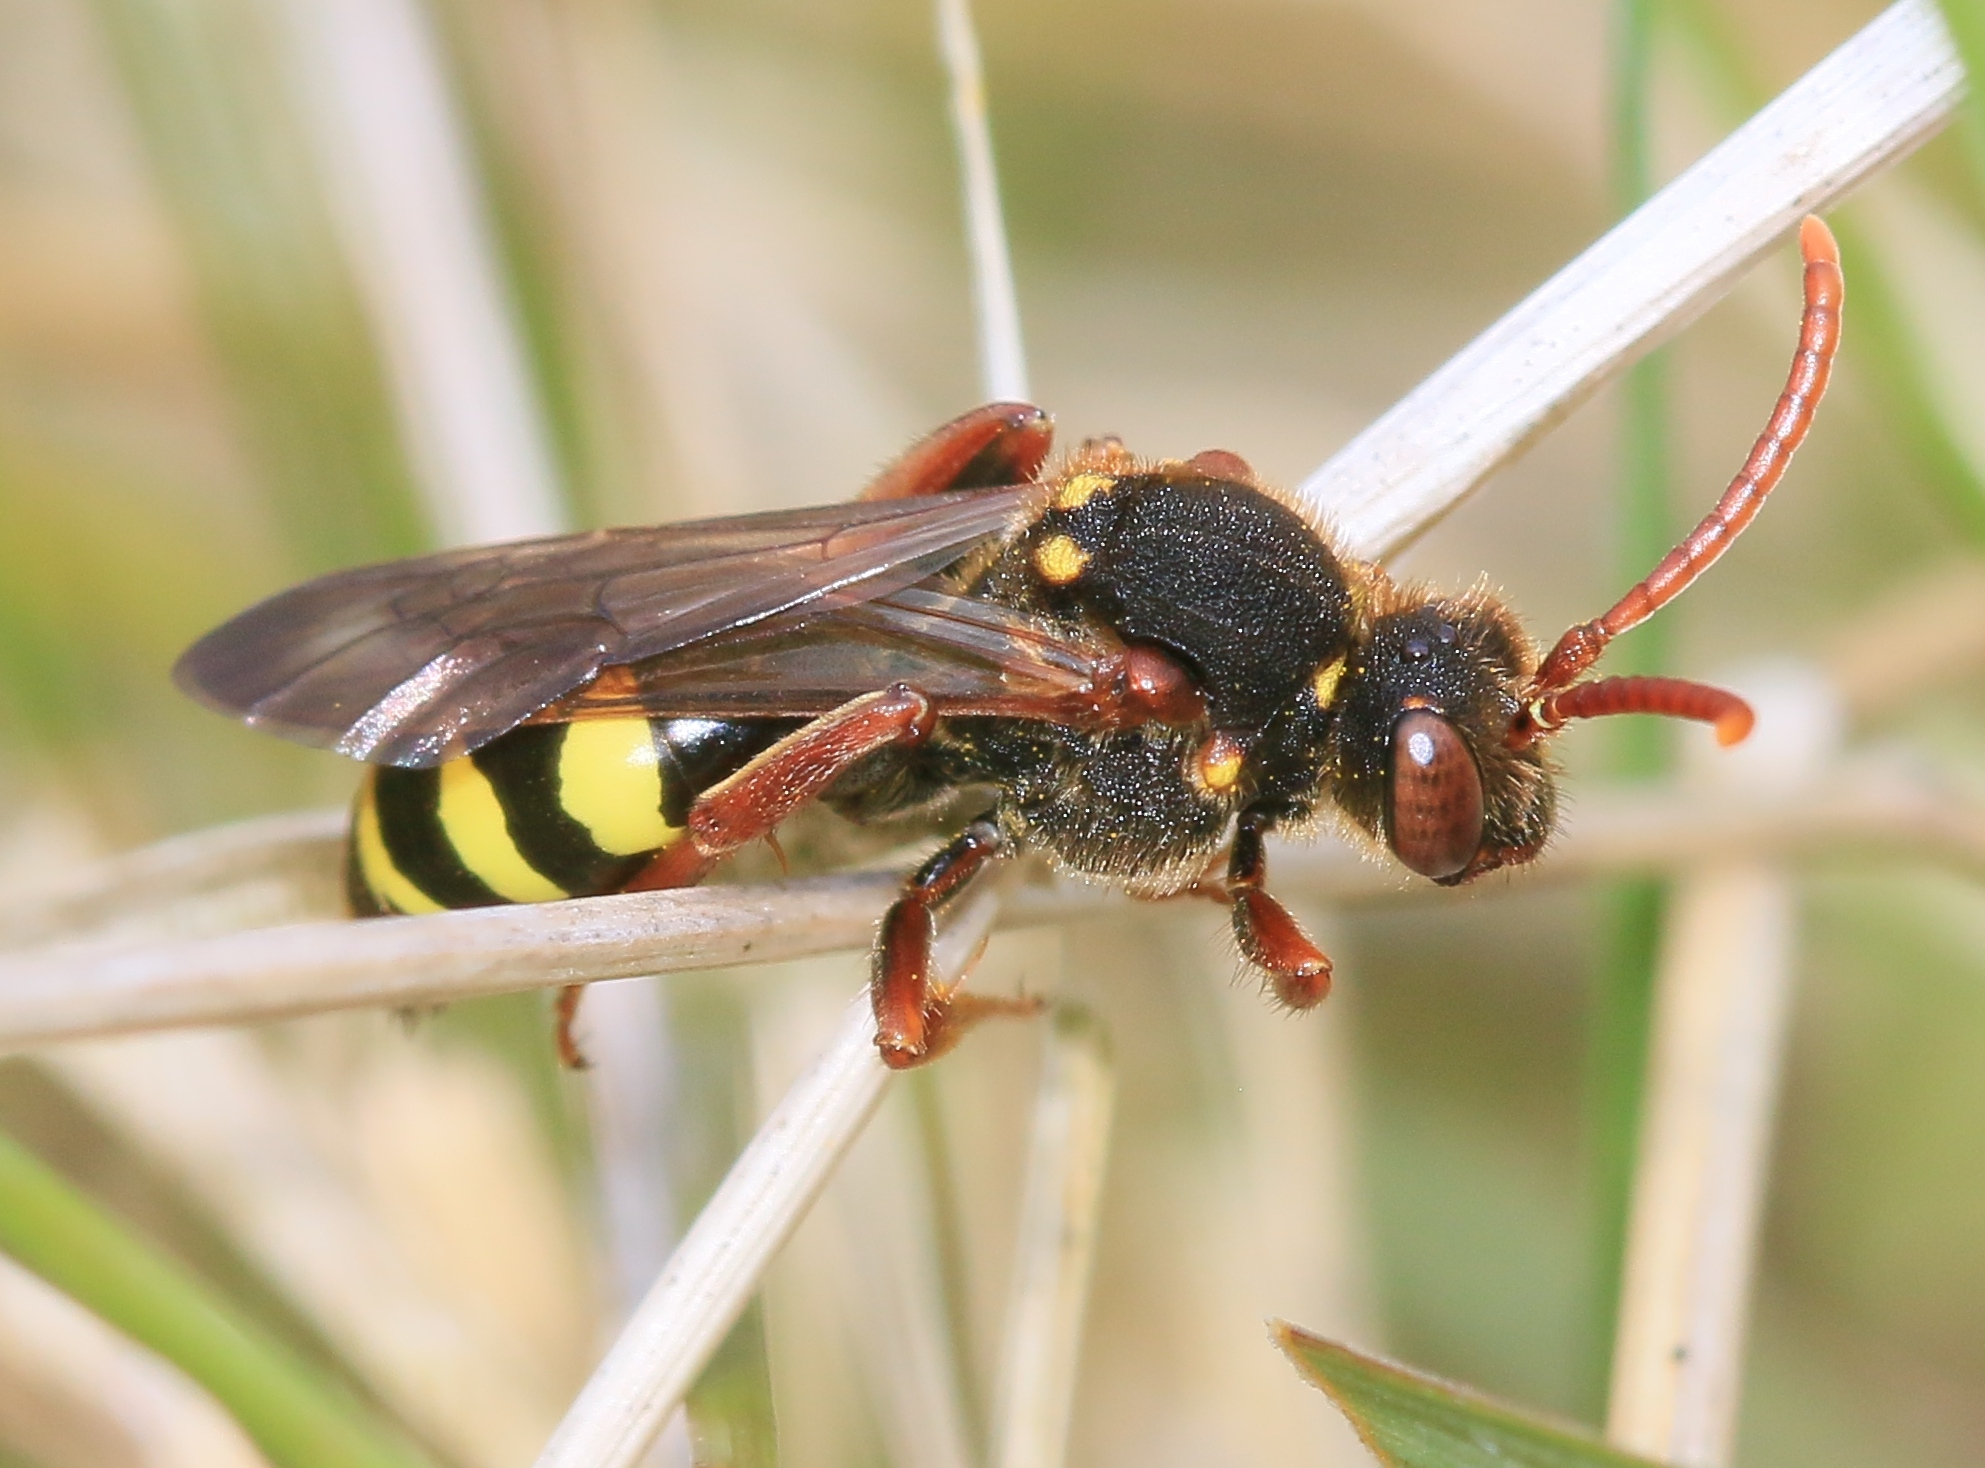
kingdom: Animalia
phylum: Arthropoda
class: Insecta
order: Hymenoptera
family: Apidae
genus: Nomada
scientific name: Nomada marshamella
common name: Marsham's nomad bee
